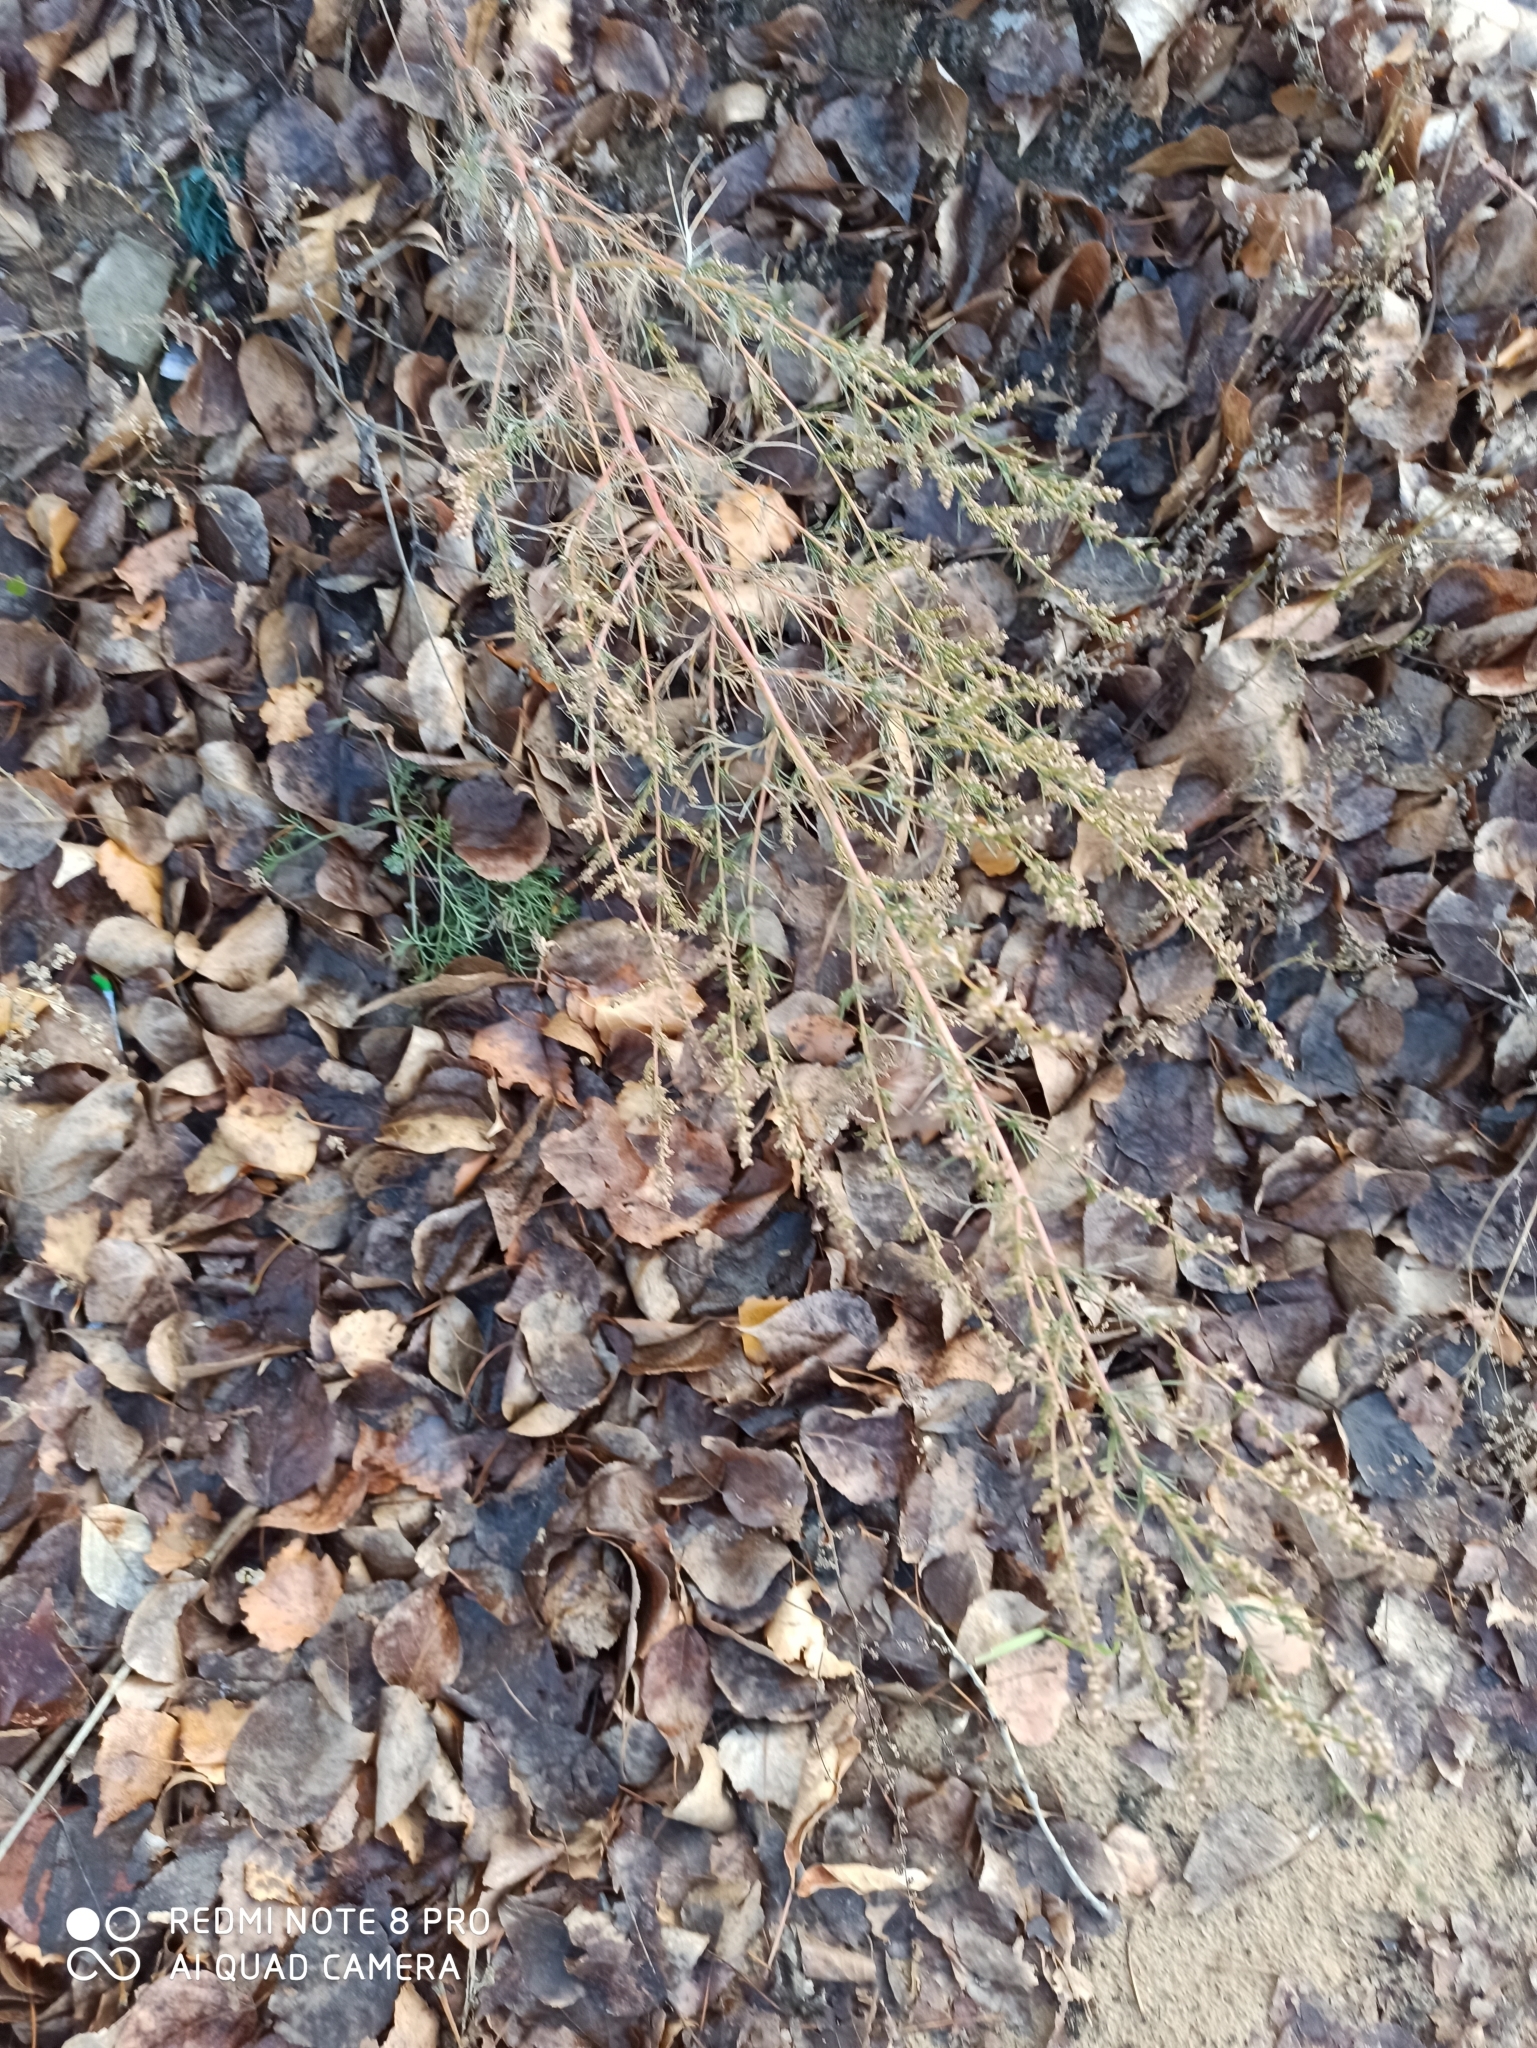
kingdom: Plantae
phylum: Tracheophyta
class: Magnoliopsida
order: Asterales
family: Asteraceae
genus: Artemisia
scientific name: Artemisia campestris
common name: Field wormwood
